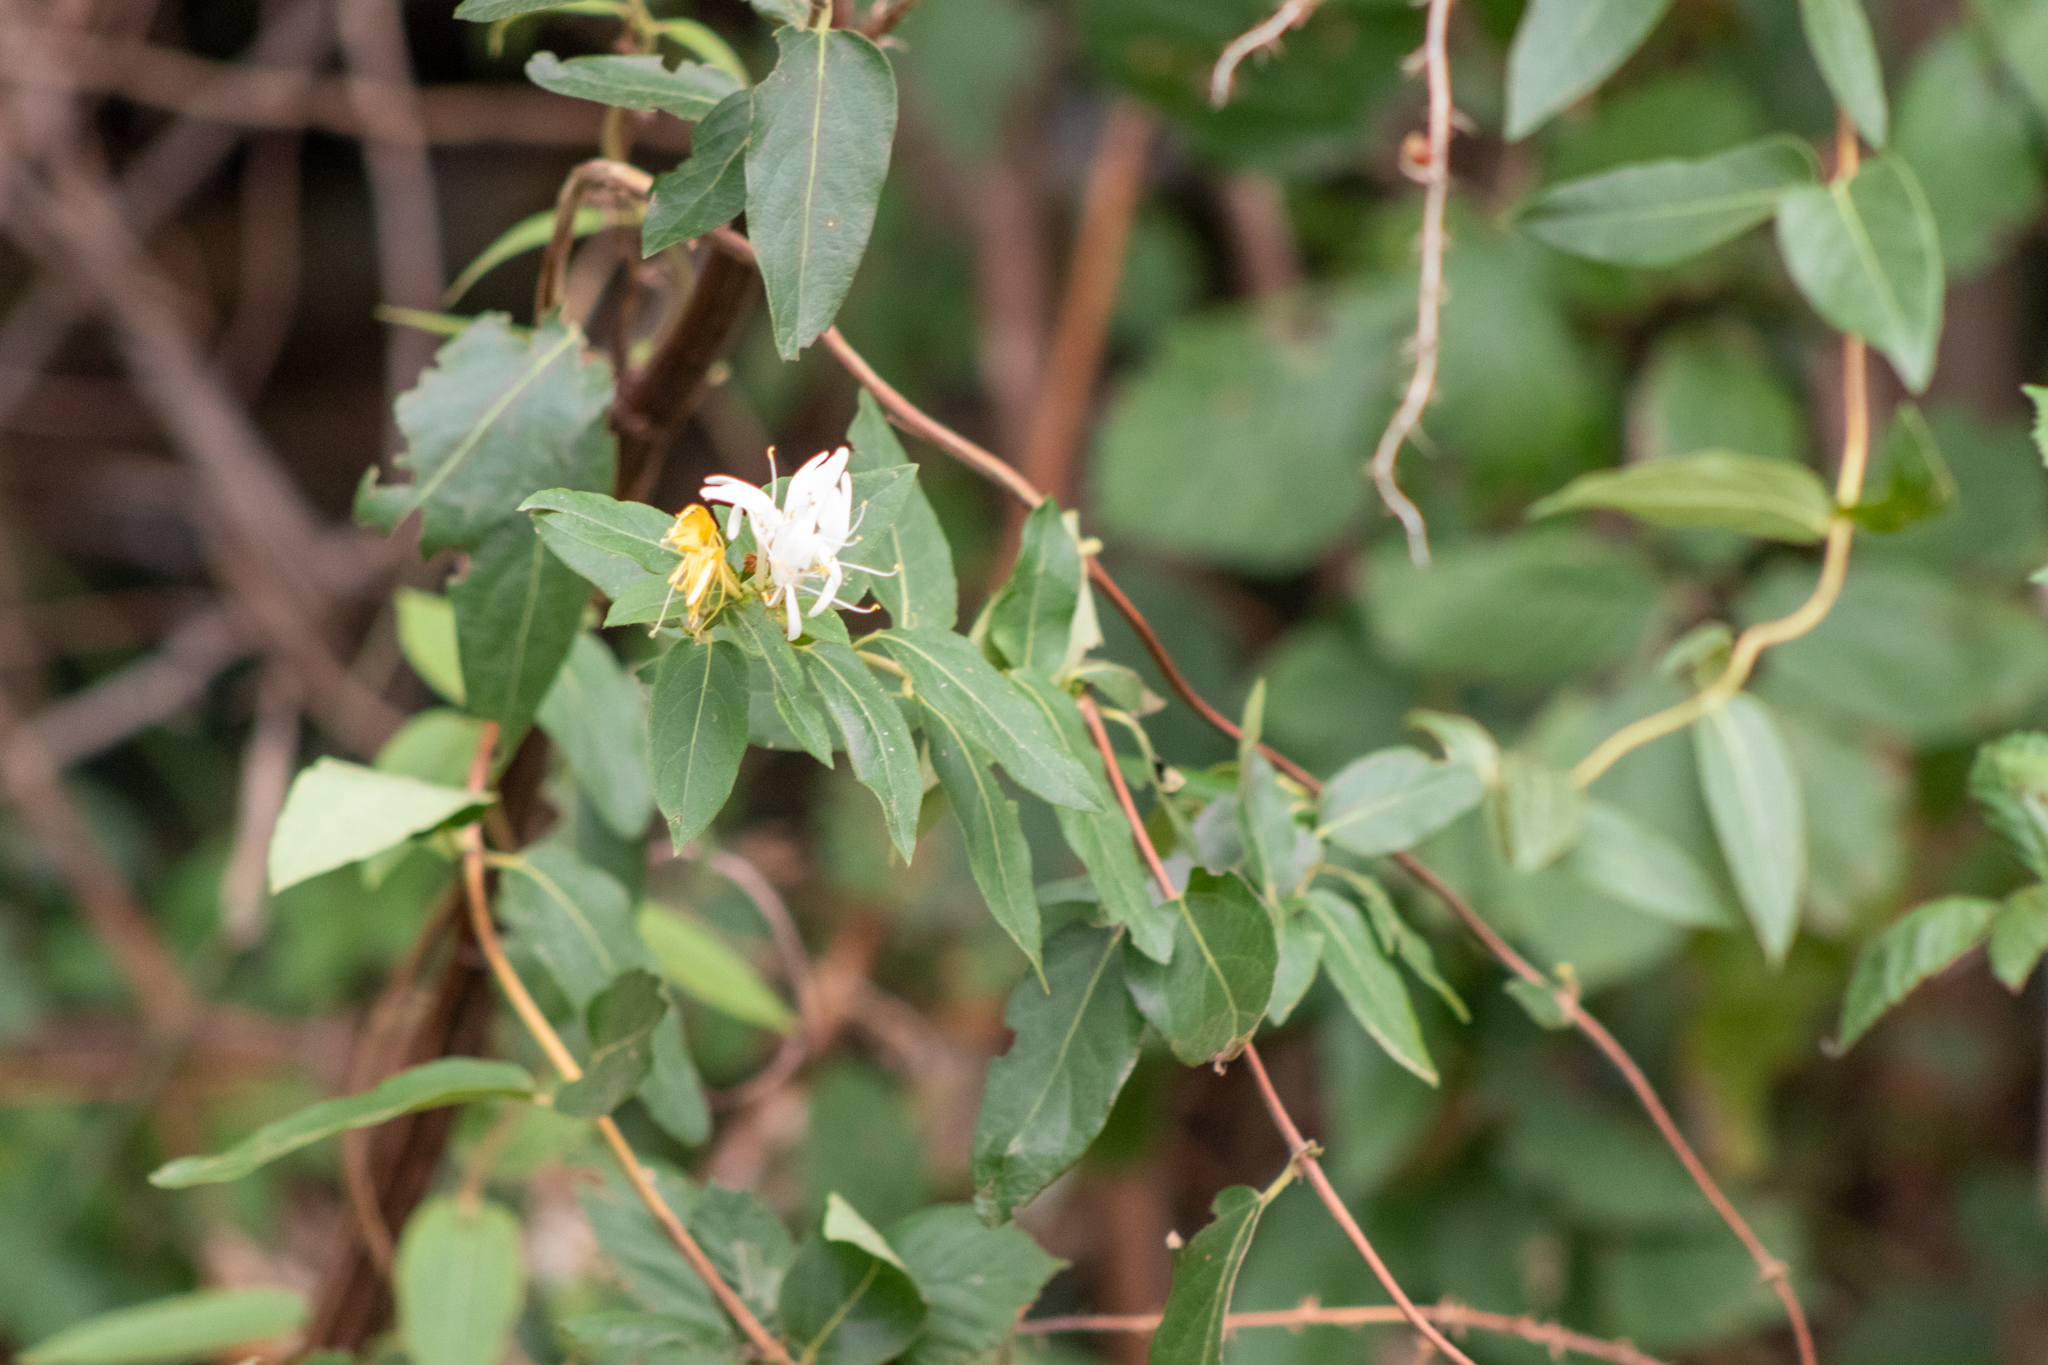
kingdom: Plantae
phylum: Tracheophyta
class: Magnoliopsida
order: Dipsacales
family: Caprifoliaceae
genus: Lonicera
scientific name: Lonicera japonica
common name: Japanese honeysuckle
